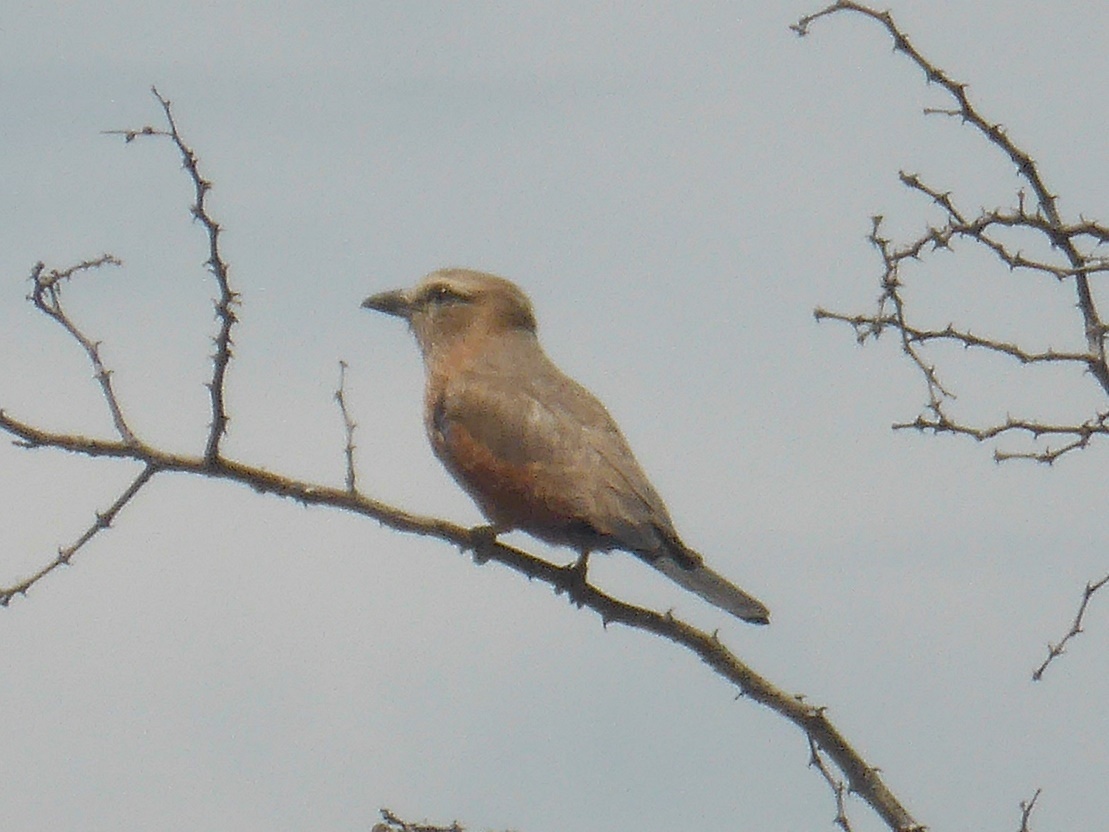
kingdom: Animalia
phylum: Chordata
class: Aves
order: Coraciiformes
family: Coraciidae
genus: Coracias
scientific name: Coracias naevius
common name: Purple roller
